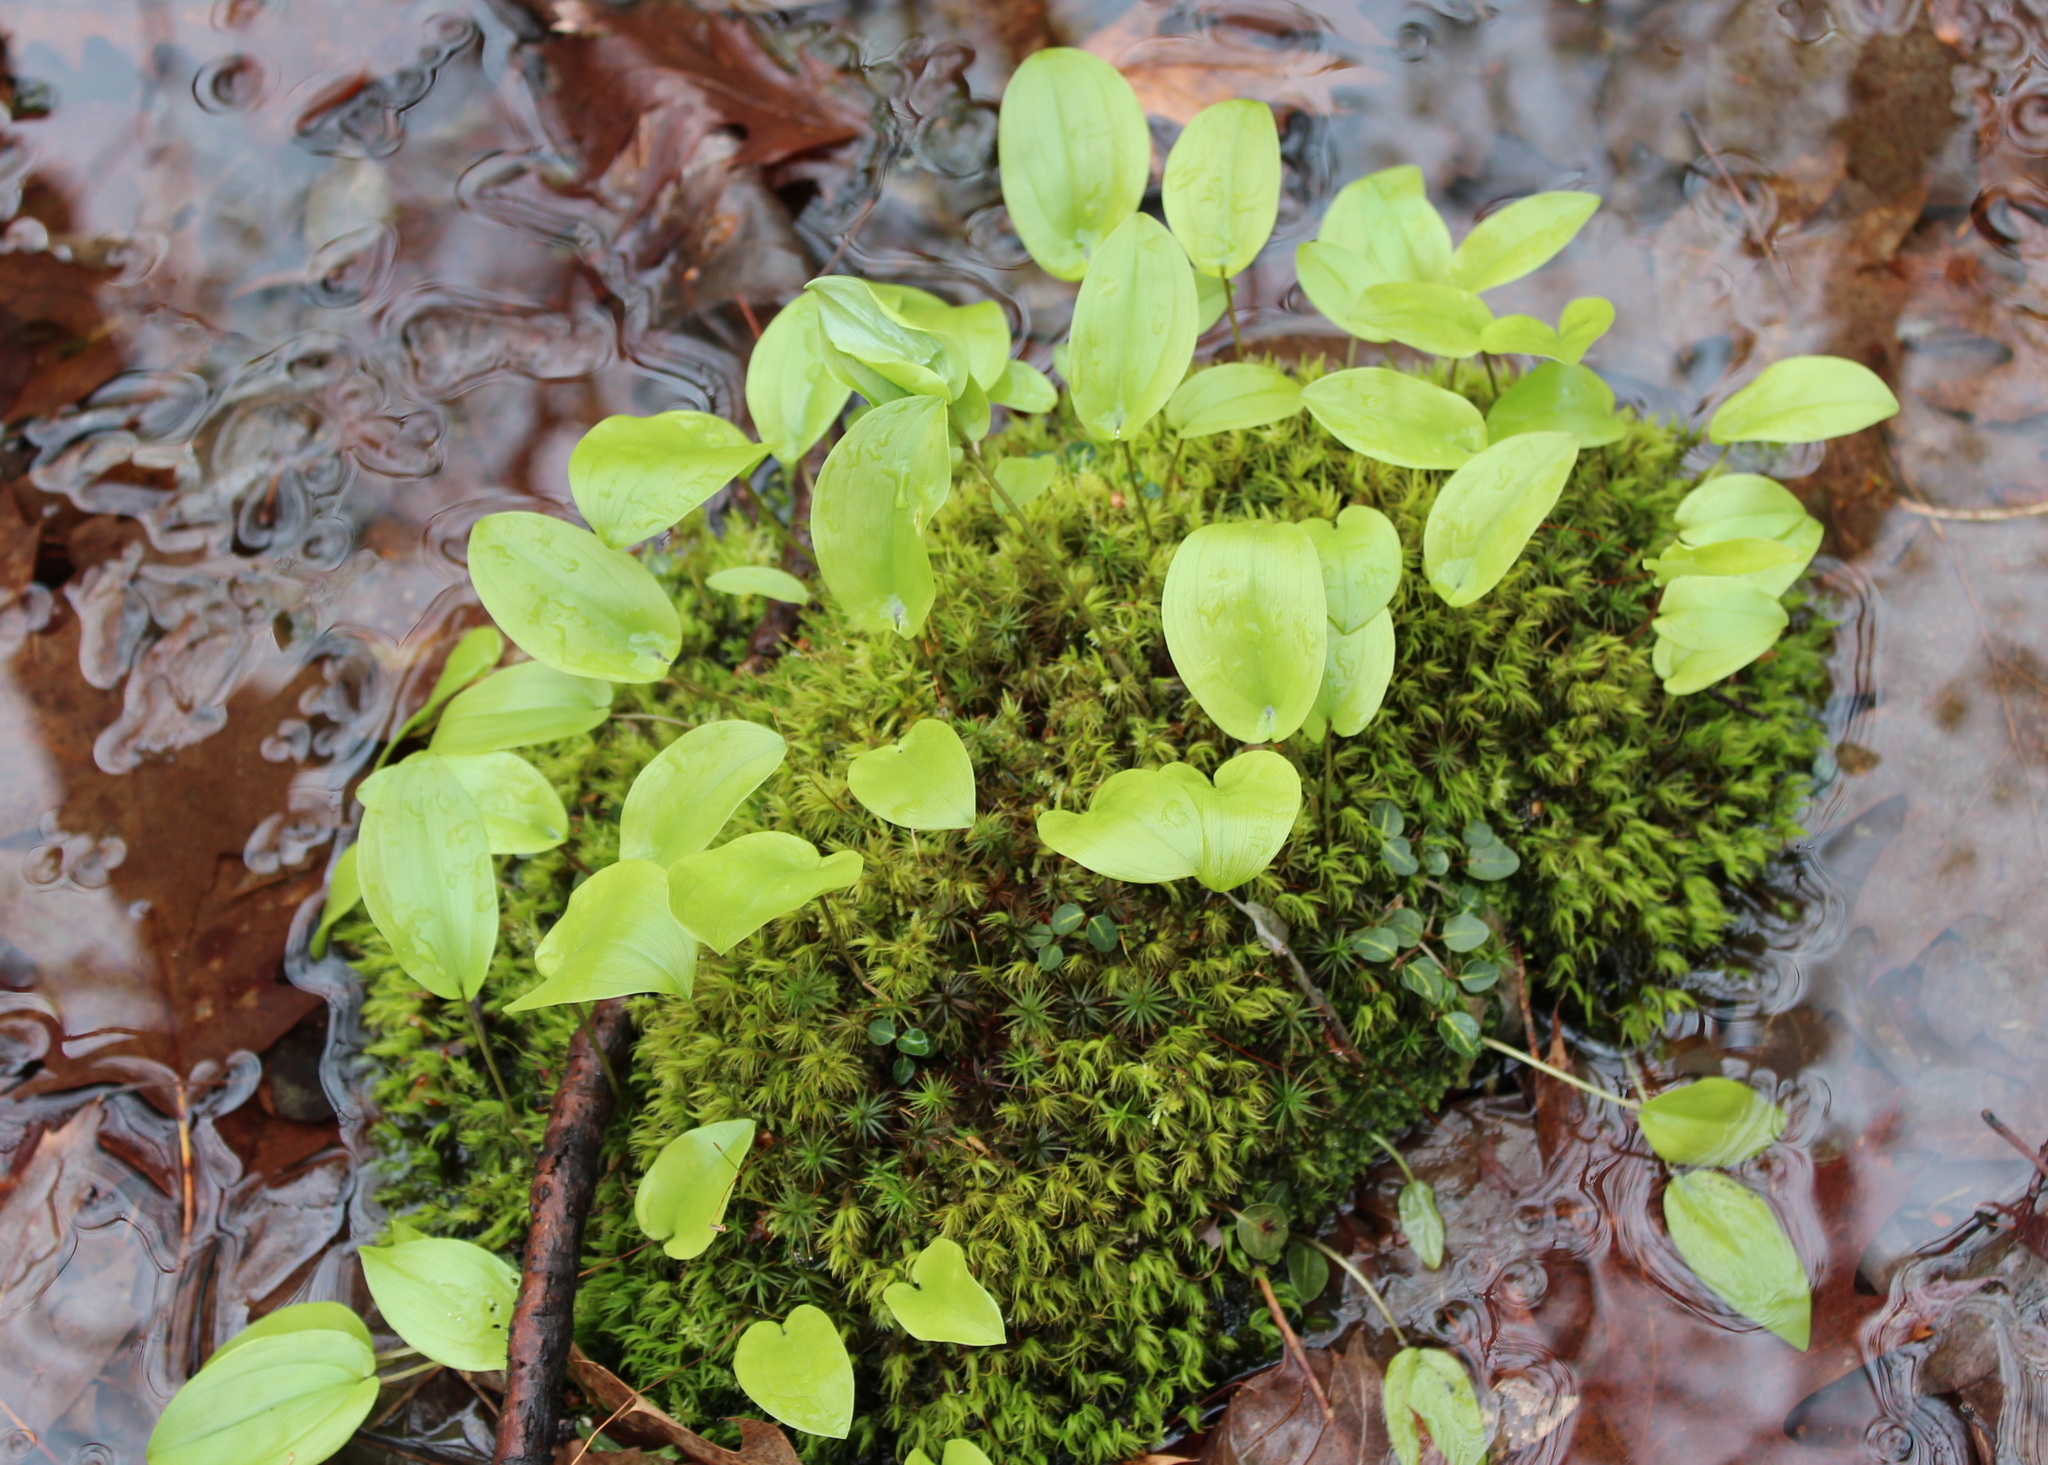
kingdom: Plantae
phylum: Tracheophyta
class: Liliopsida
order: Asparagales
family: Asparagaceae
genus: Maianthemum
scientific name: Maianthemum canadense
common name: False lily-of-the-valley
